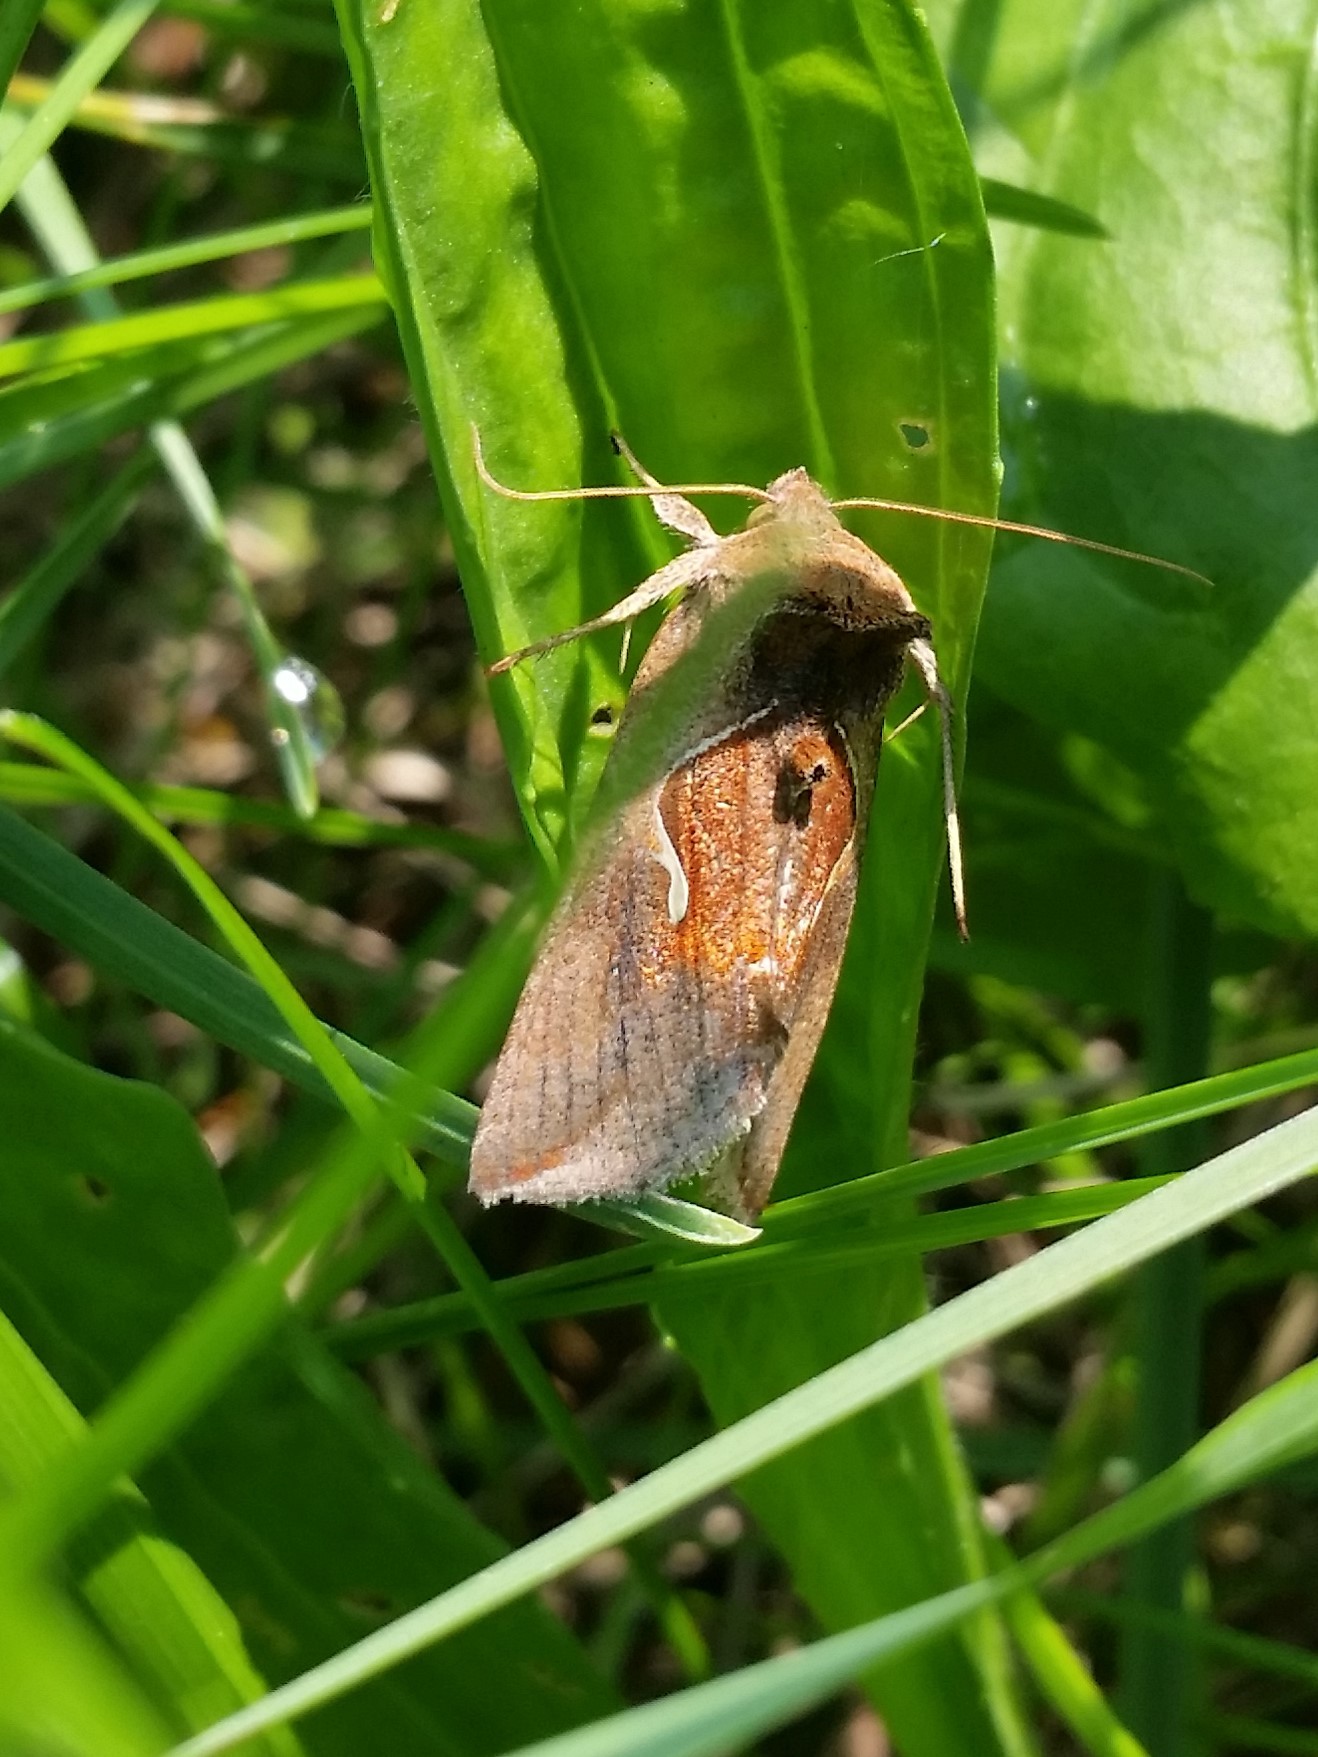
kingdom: Animalia
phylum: Arthropoda
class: Insecta
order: Lepidoptera
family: Noctuidae
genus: Anagrapha
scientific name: Anagrapha falcifera
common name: Celery looper
